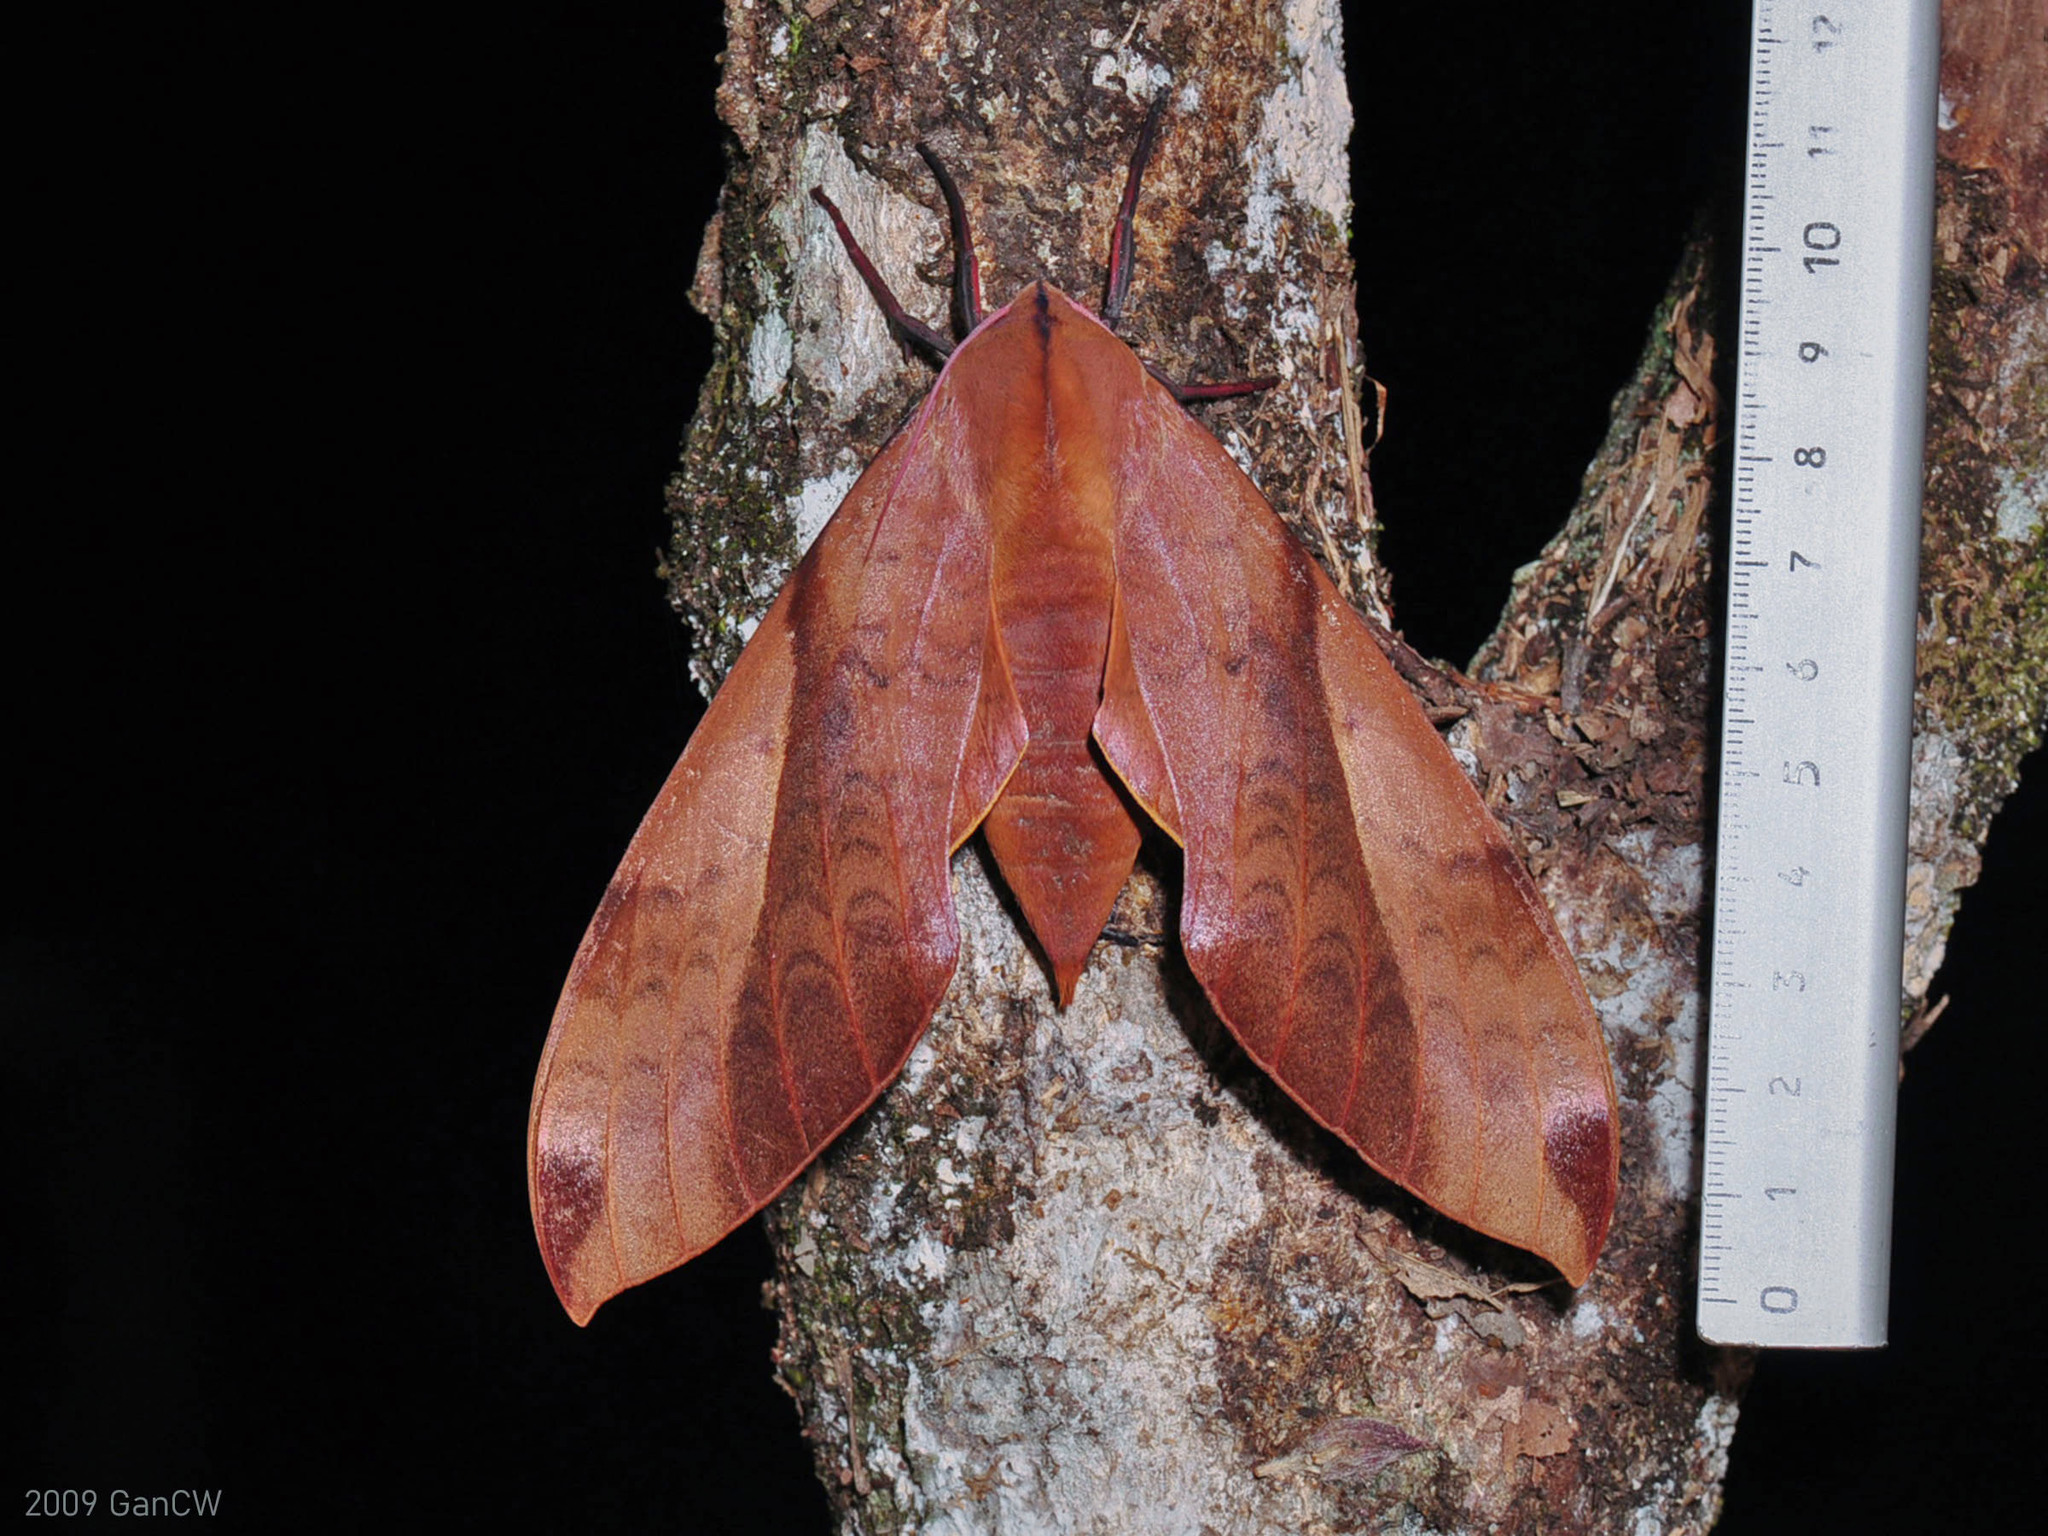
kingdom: Animalia
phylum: Arthropoda
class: Insecta
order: Lepidoptera
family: Sphingidae
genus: Clanis
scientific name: Clanis undulosa
